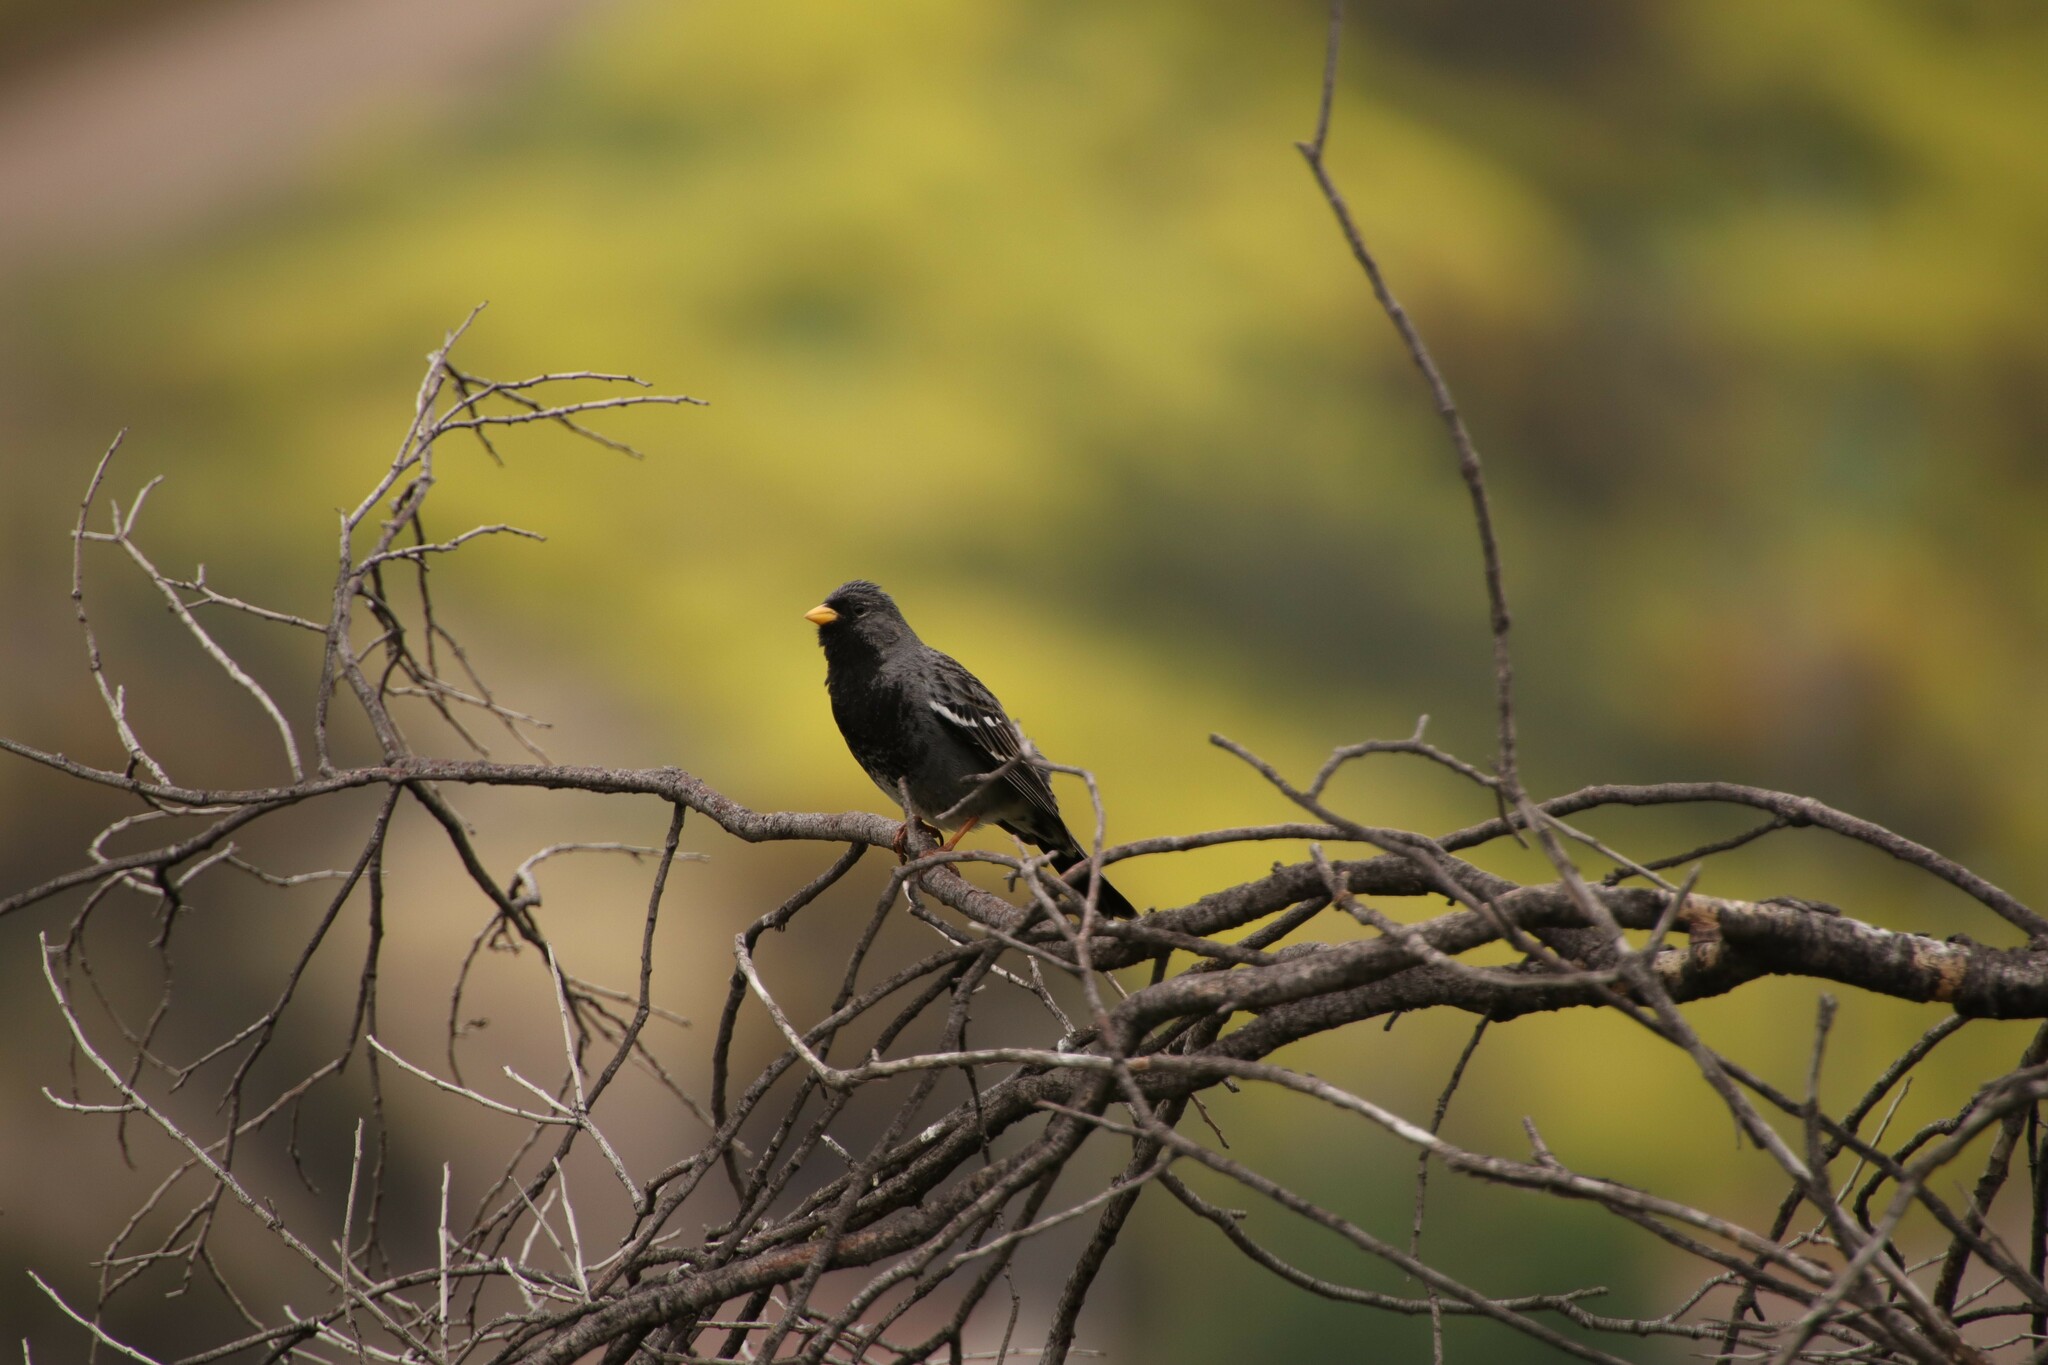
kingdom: Animalia
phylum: Chordata
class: Aves
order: Passeriformes
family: Thraupidae
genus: Rhopospina
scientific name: Rhopospina fruticeti
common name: Mourning sierra finch
